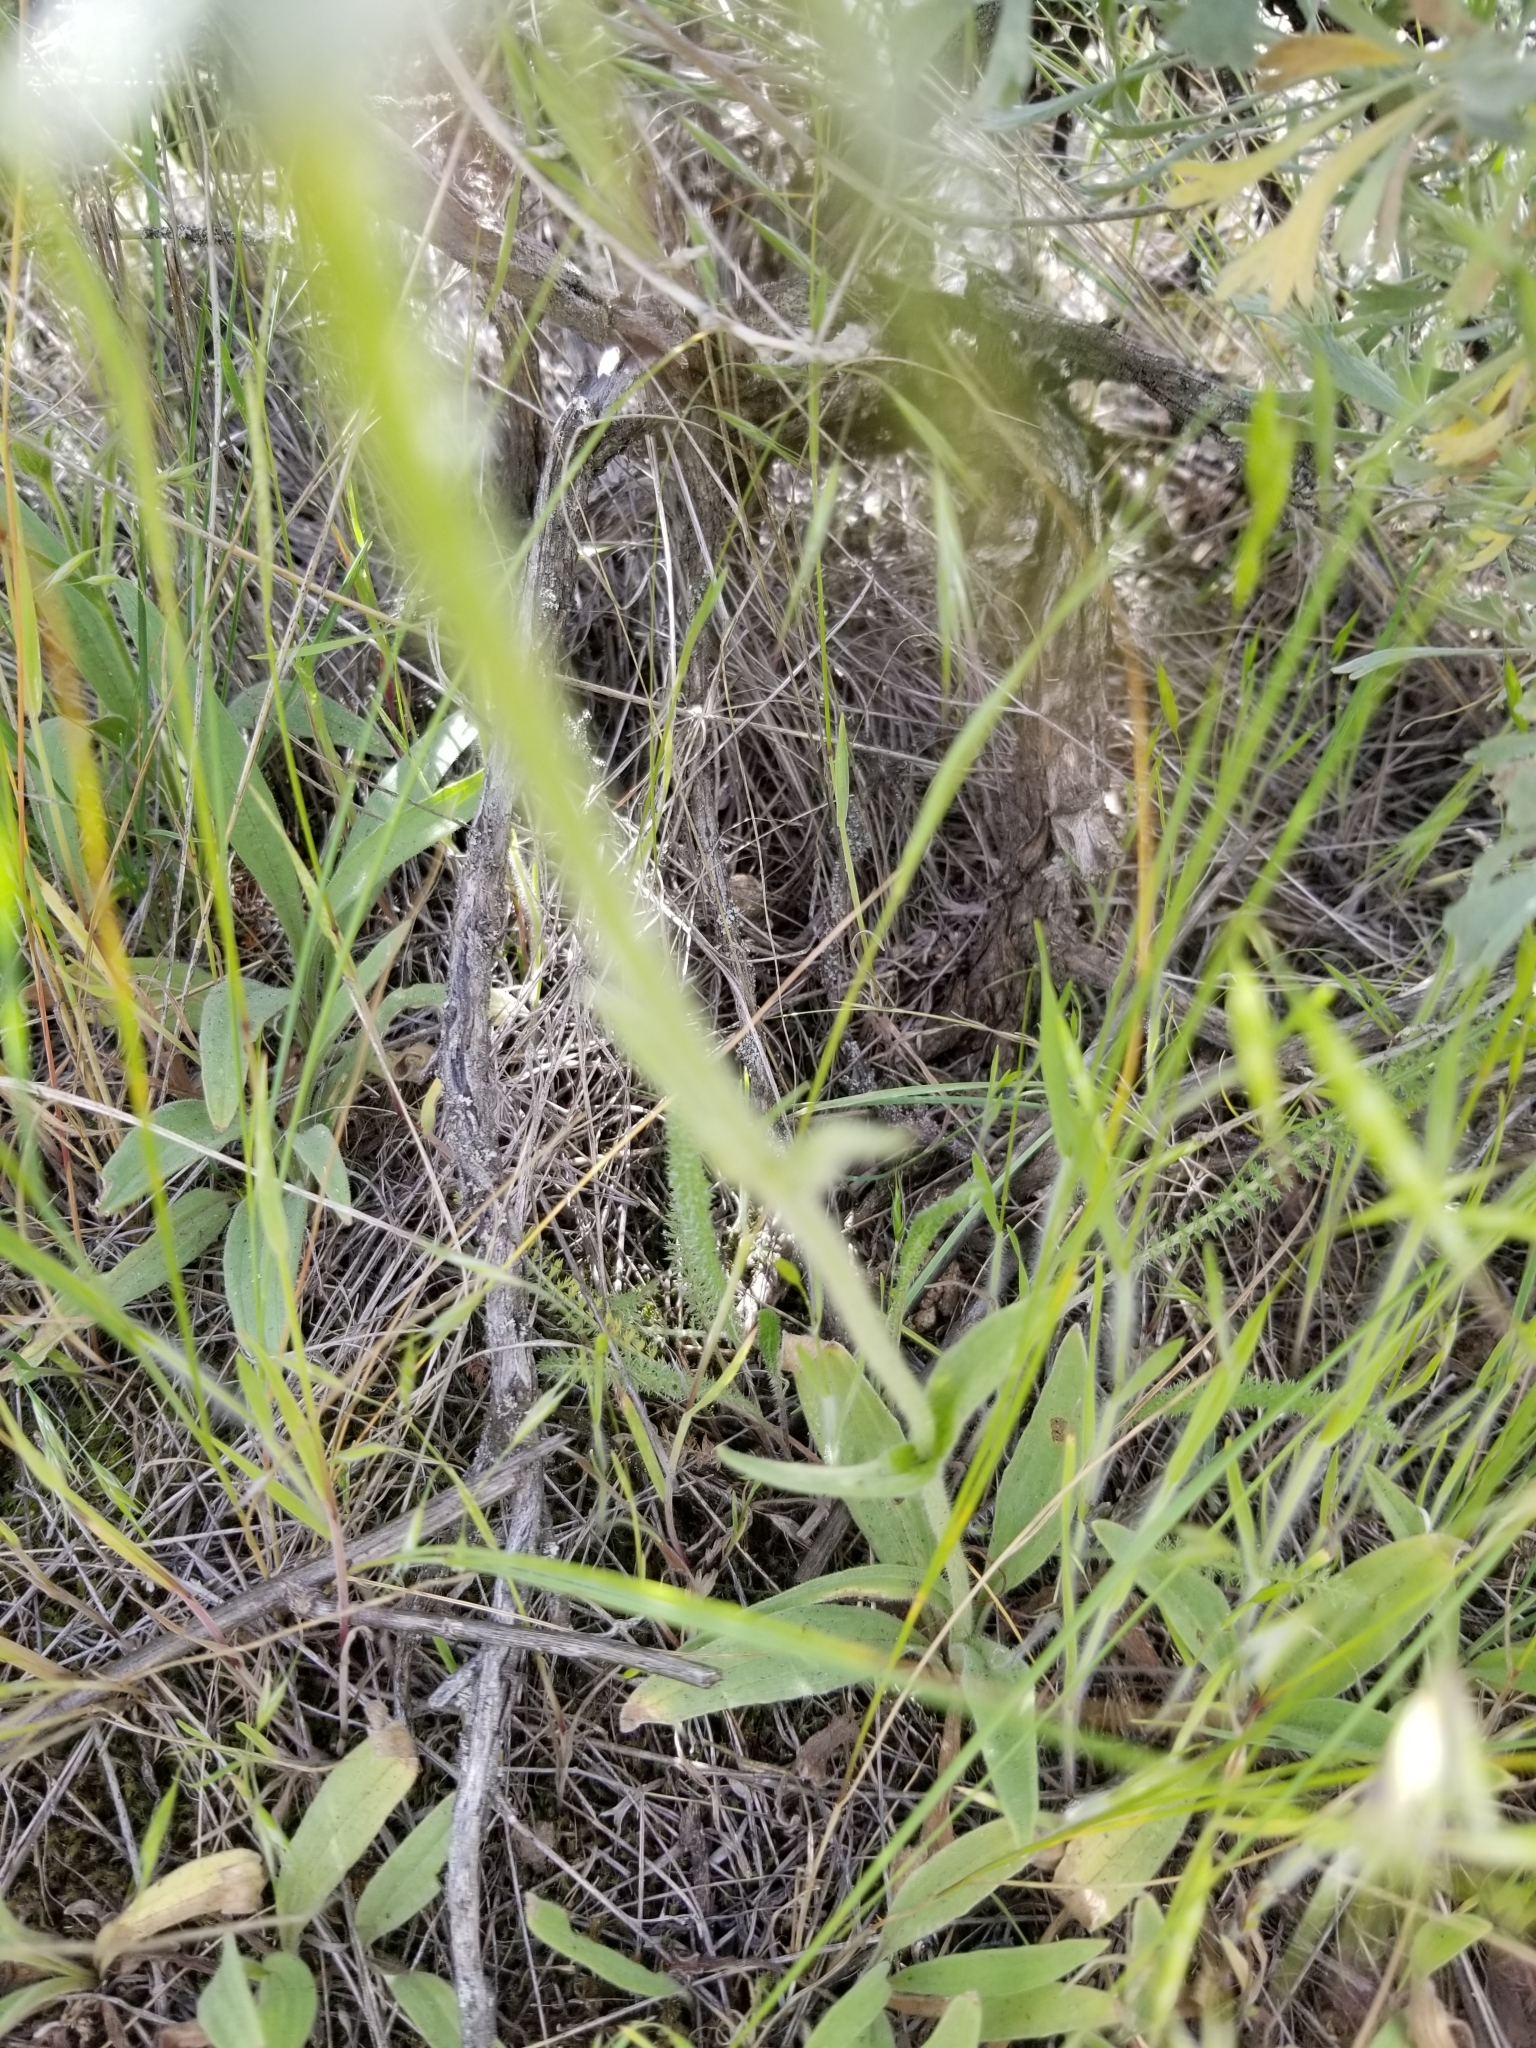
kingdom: Plantae
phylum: Tracheophyta
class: Magnoliopsida
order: Asterales
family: Asteraceae
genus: Arnica
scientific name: Arnica fulgens
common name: Foothill arnica
